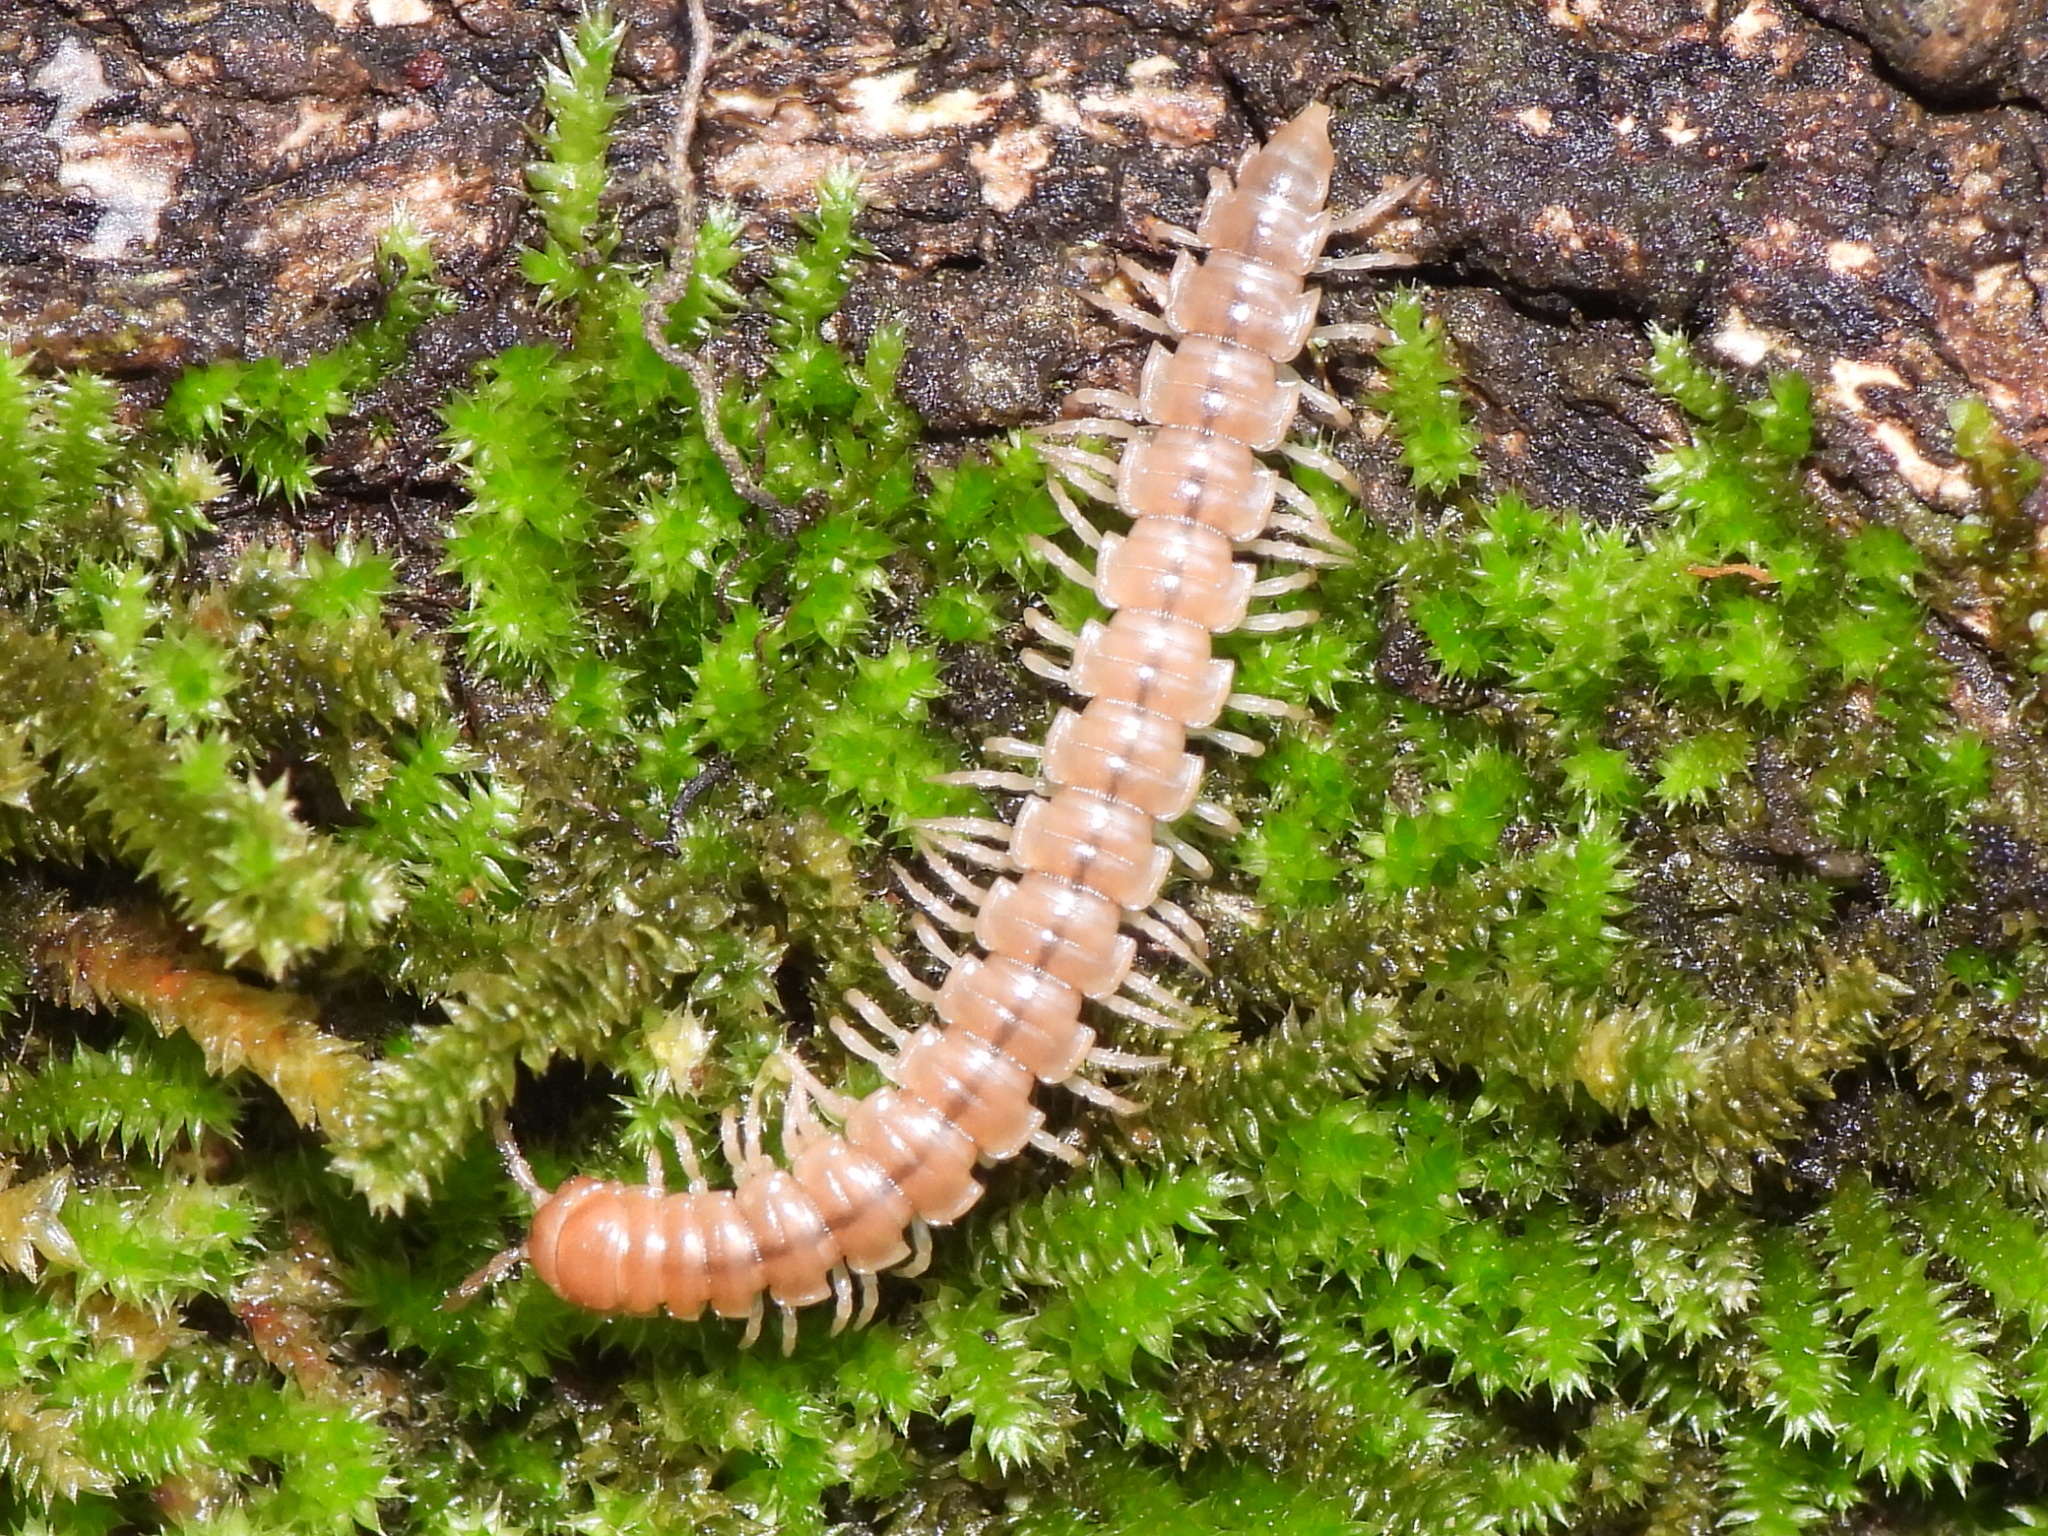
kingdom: Animalia
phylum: Arthropoda
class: Diplopoda
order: Polydesmida
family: Paradoxosomatidae
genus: Oxidus
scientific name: Oxidus gracilis
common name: Greenhouse millipede
